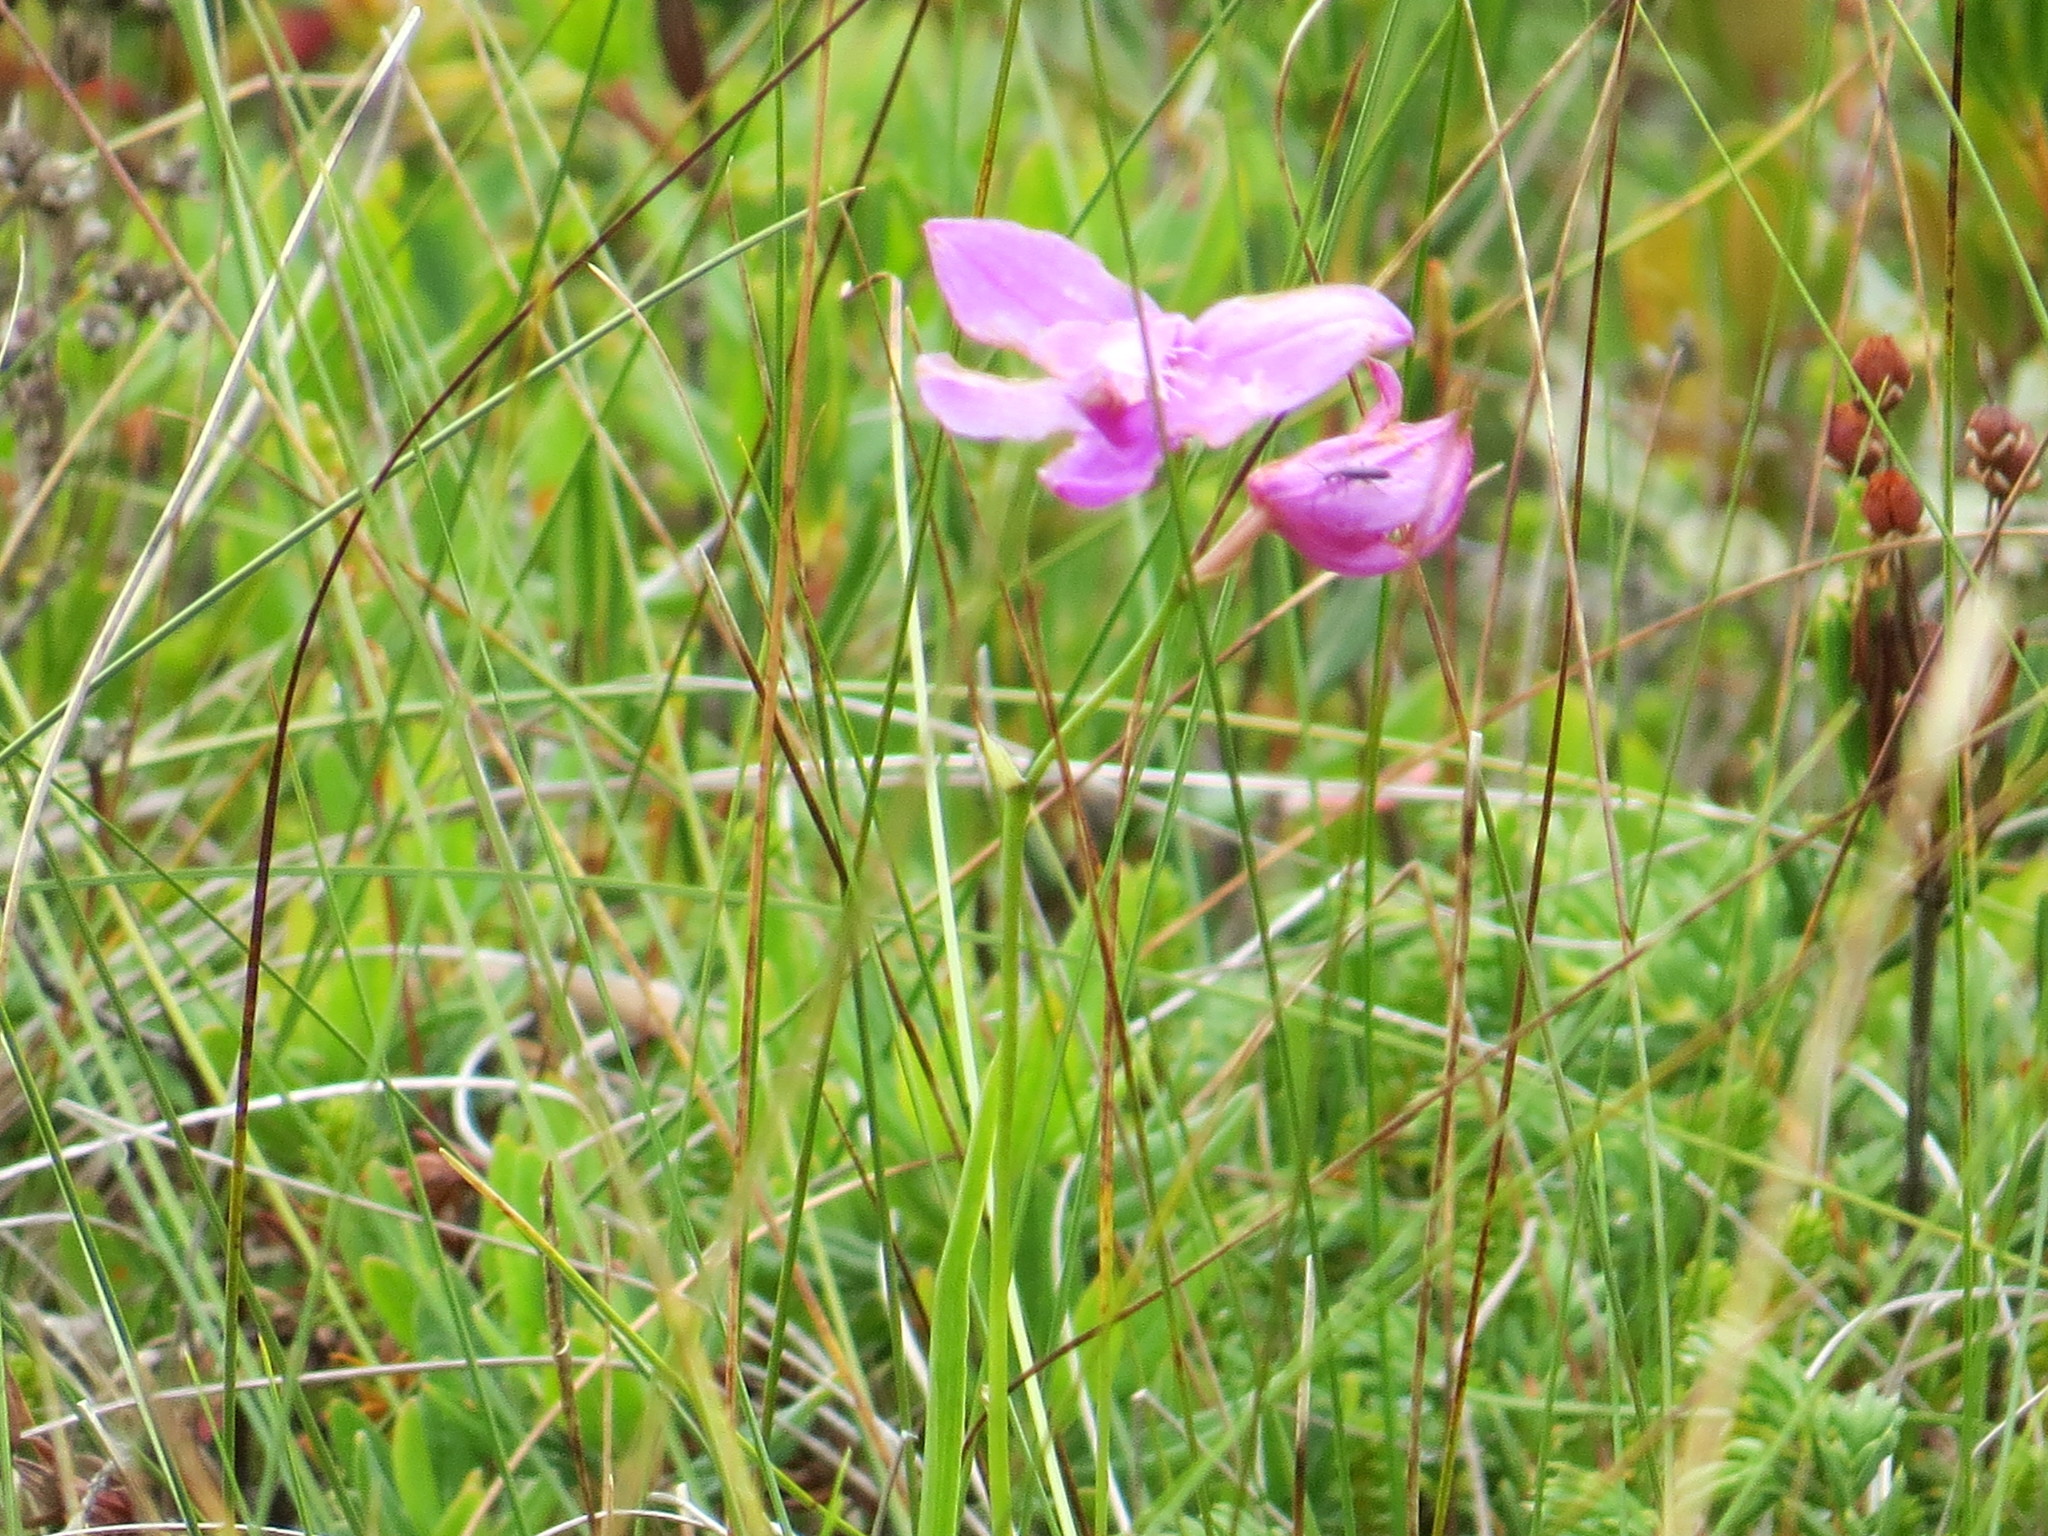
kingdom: Plantae
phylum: Tracheophyta
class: Liliopsida
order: Asparagales
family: Orchidaceae
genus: Calopogon
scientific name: Calopogon tuberosus
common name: Grass-pink
